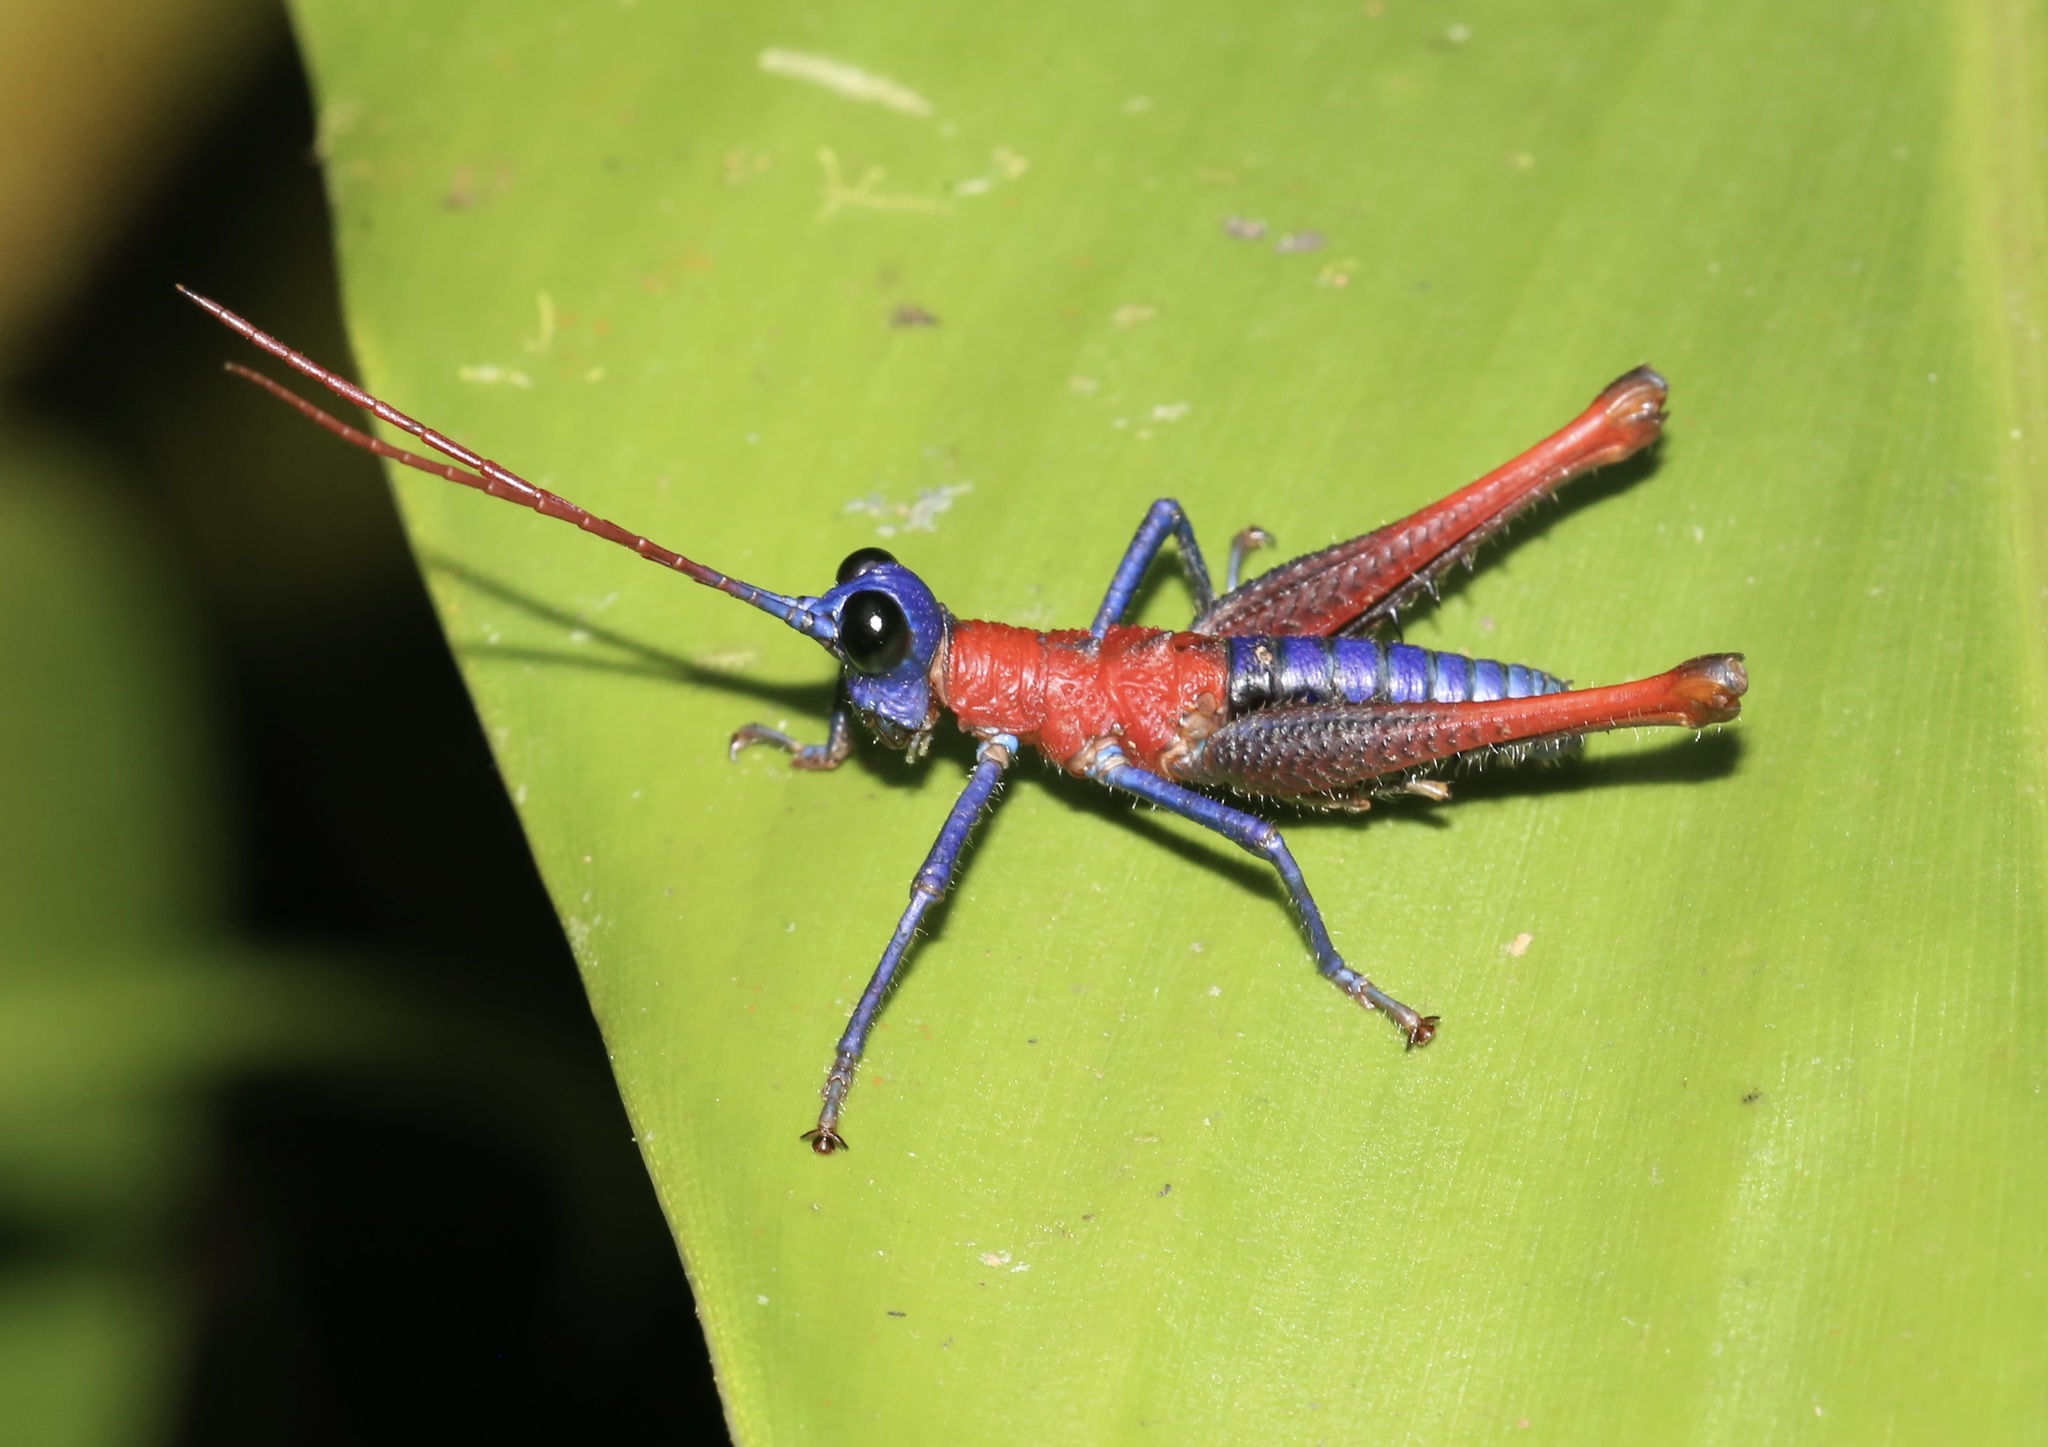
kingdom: Animalia
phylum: Arthropoda
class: Insecta
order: Orthoptera
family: Acrididae
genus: Opaon
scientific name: Opaon varicolor
